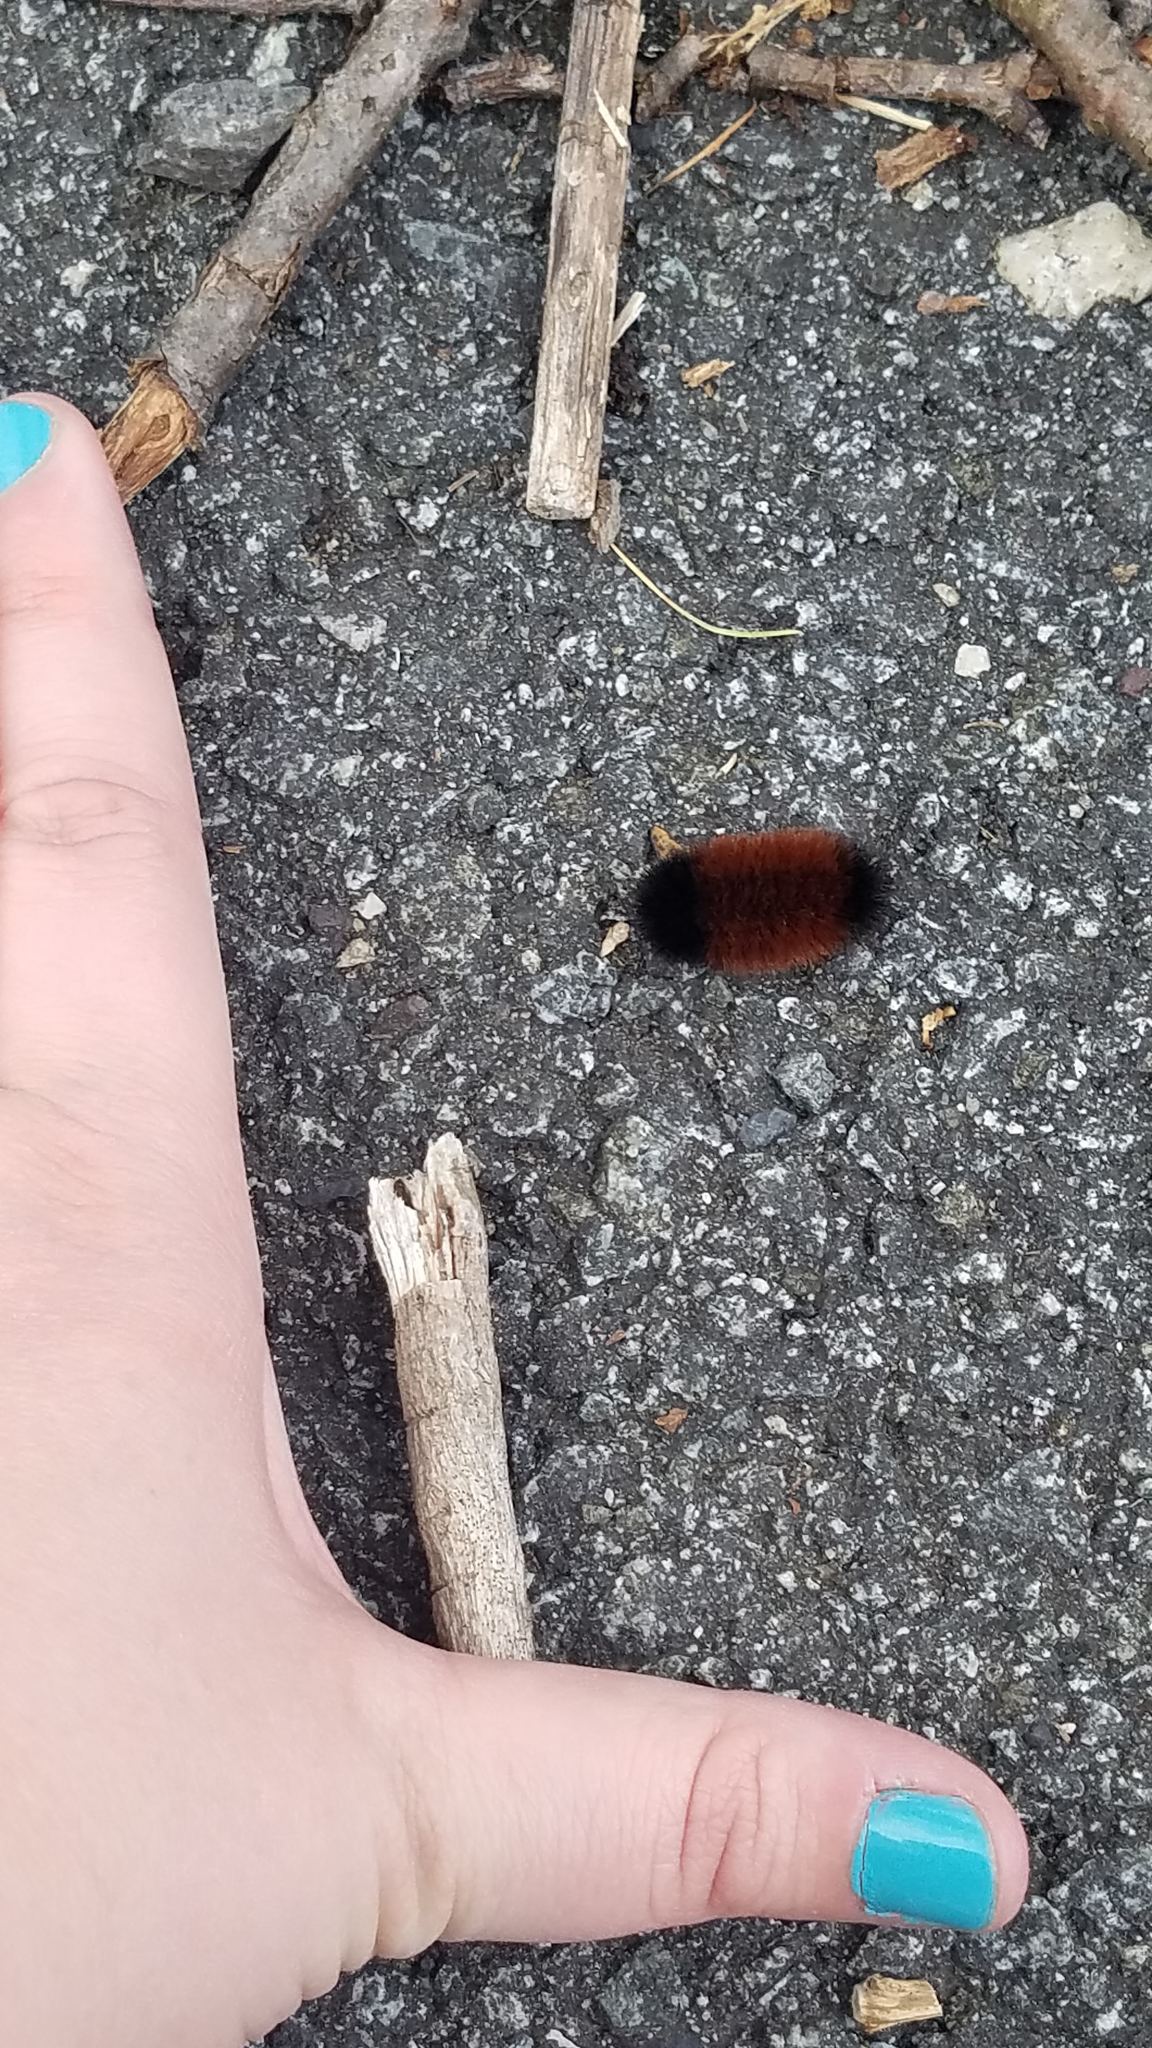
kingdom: Animalia
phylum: Arthropoda
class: Insecta
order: Lepidoptera
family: Erebidae
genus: Pyrrharctia
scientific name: Pyrrharctia isabella
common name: Isabella tiger moth
